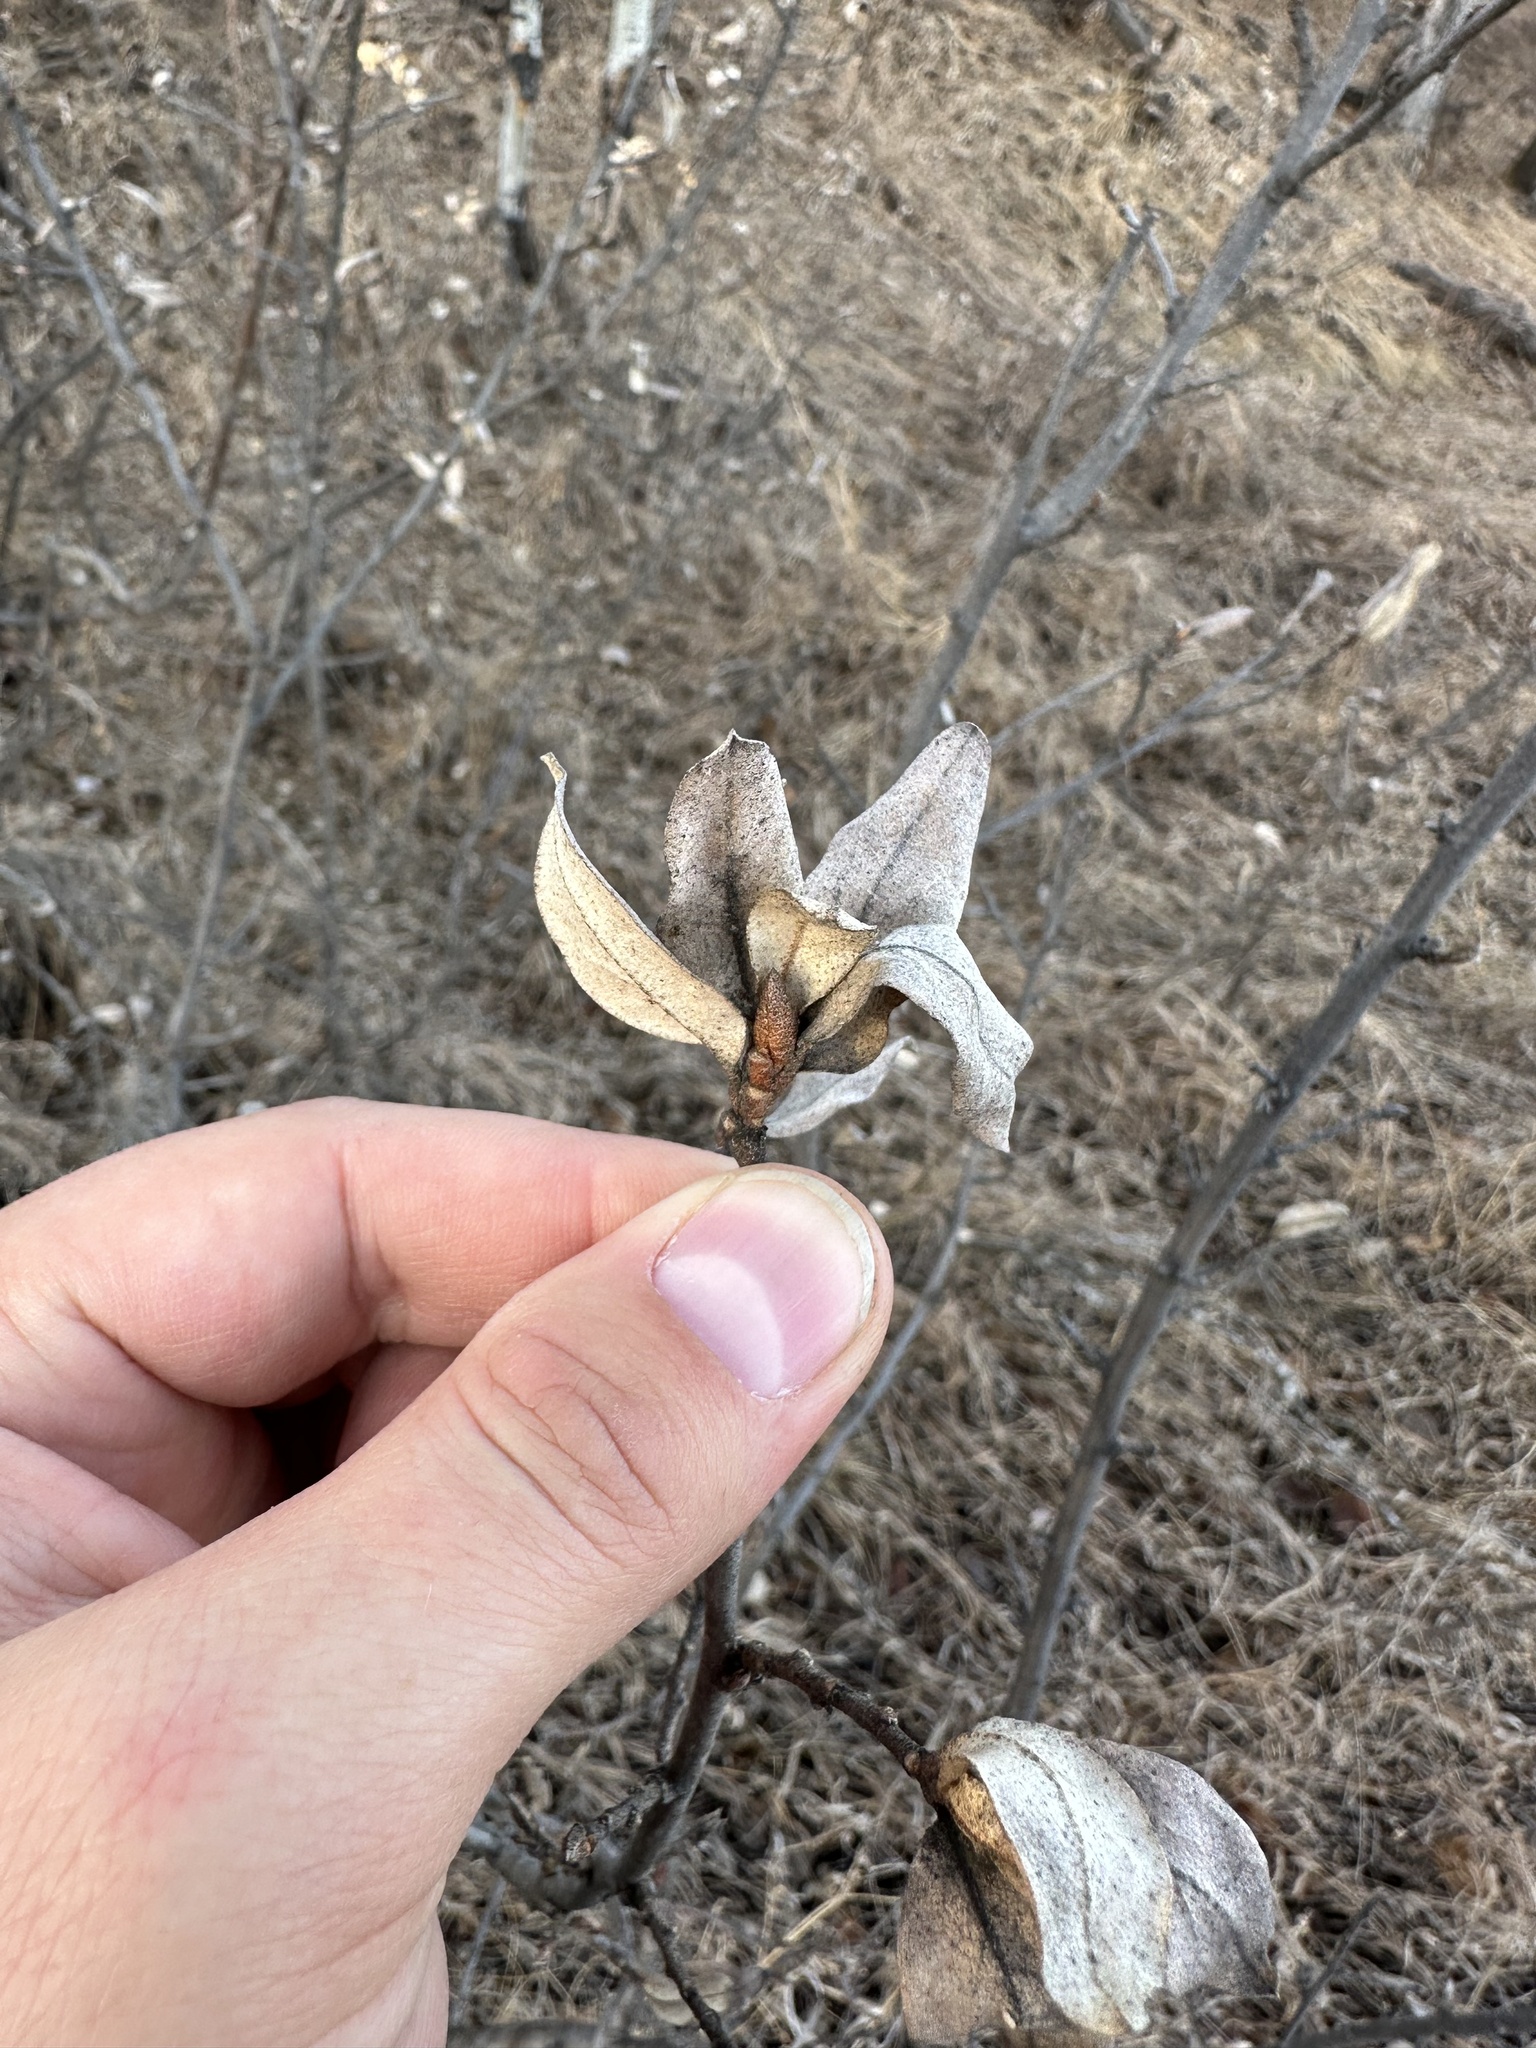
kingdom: Plantae
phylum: Tracheophyta
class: Magnoliopsida
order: Rosales
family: Elaeagnaceae
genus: Elaeagnus
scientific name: Elaeagnus commutata
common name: Silverberry
